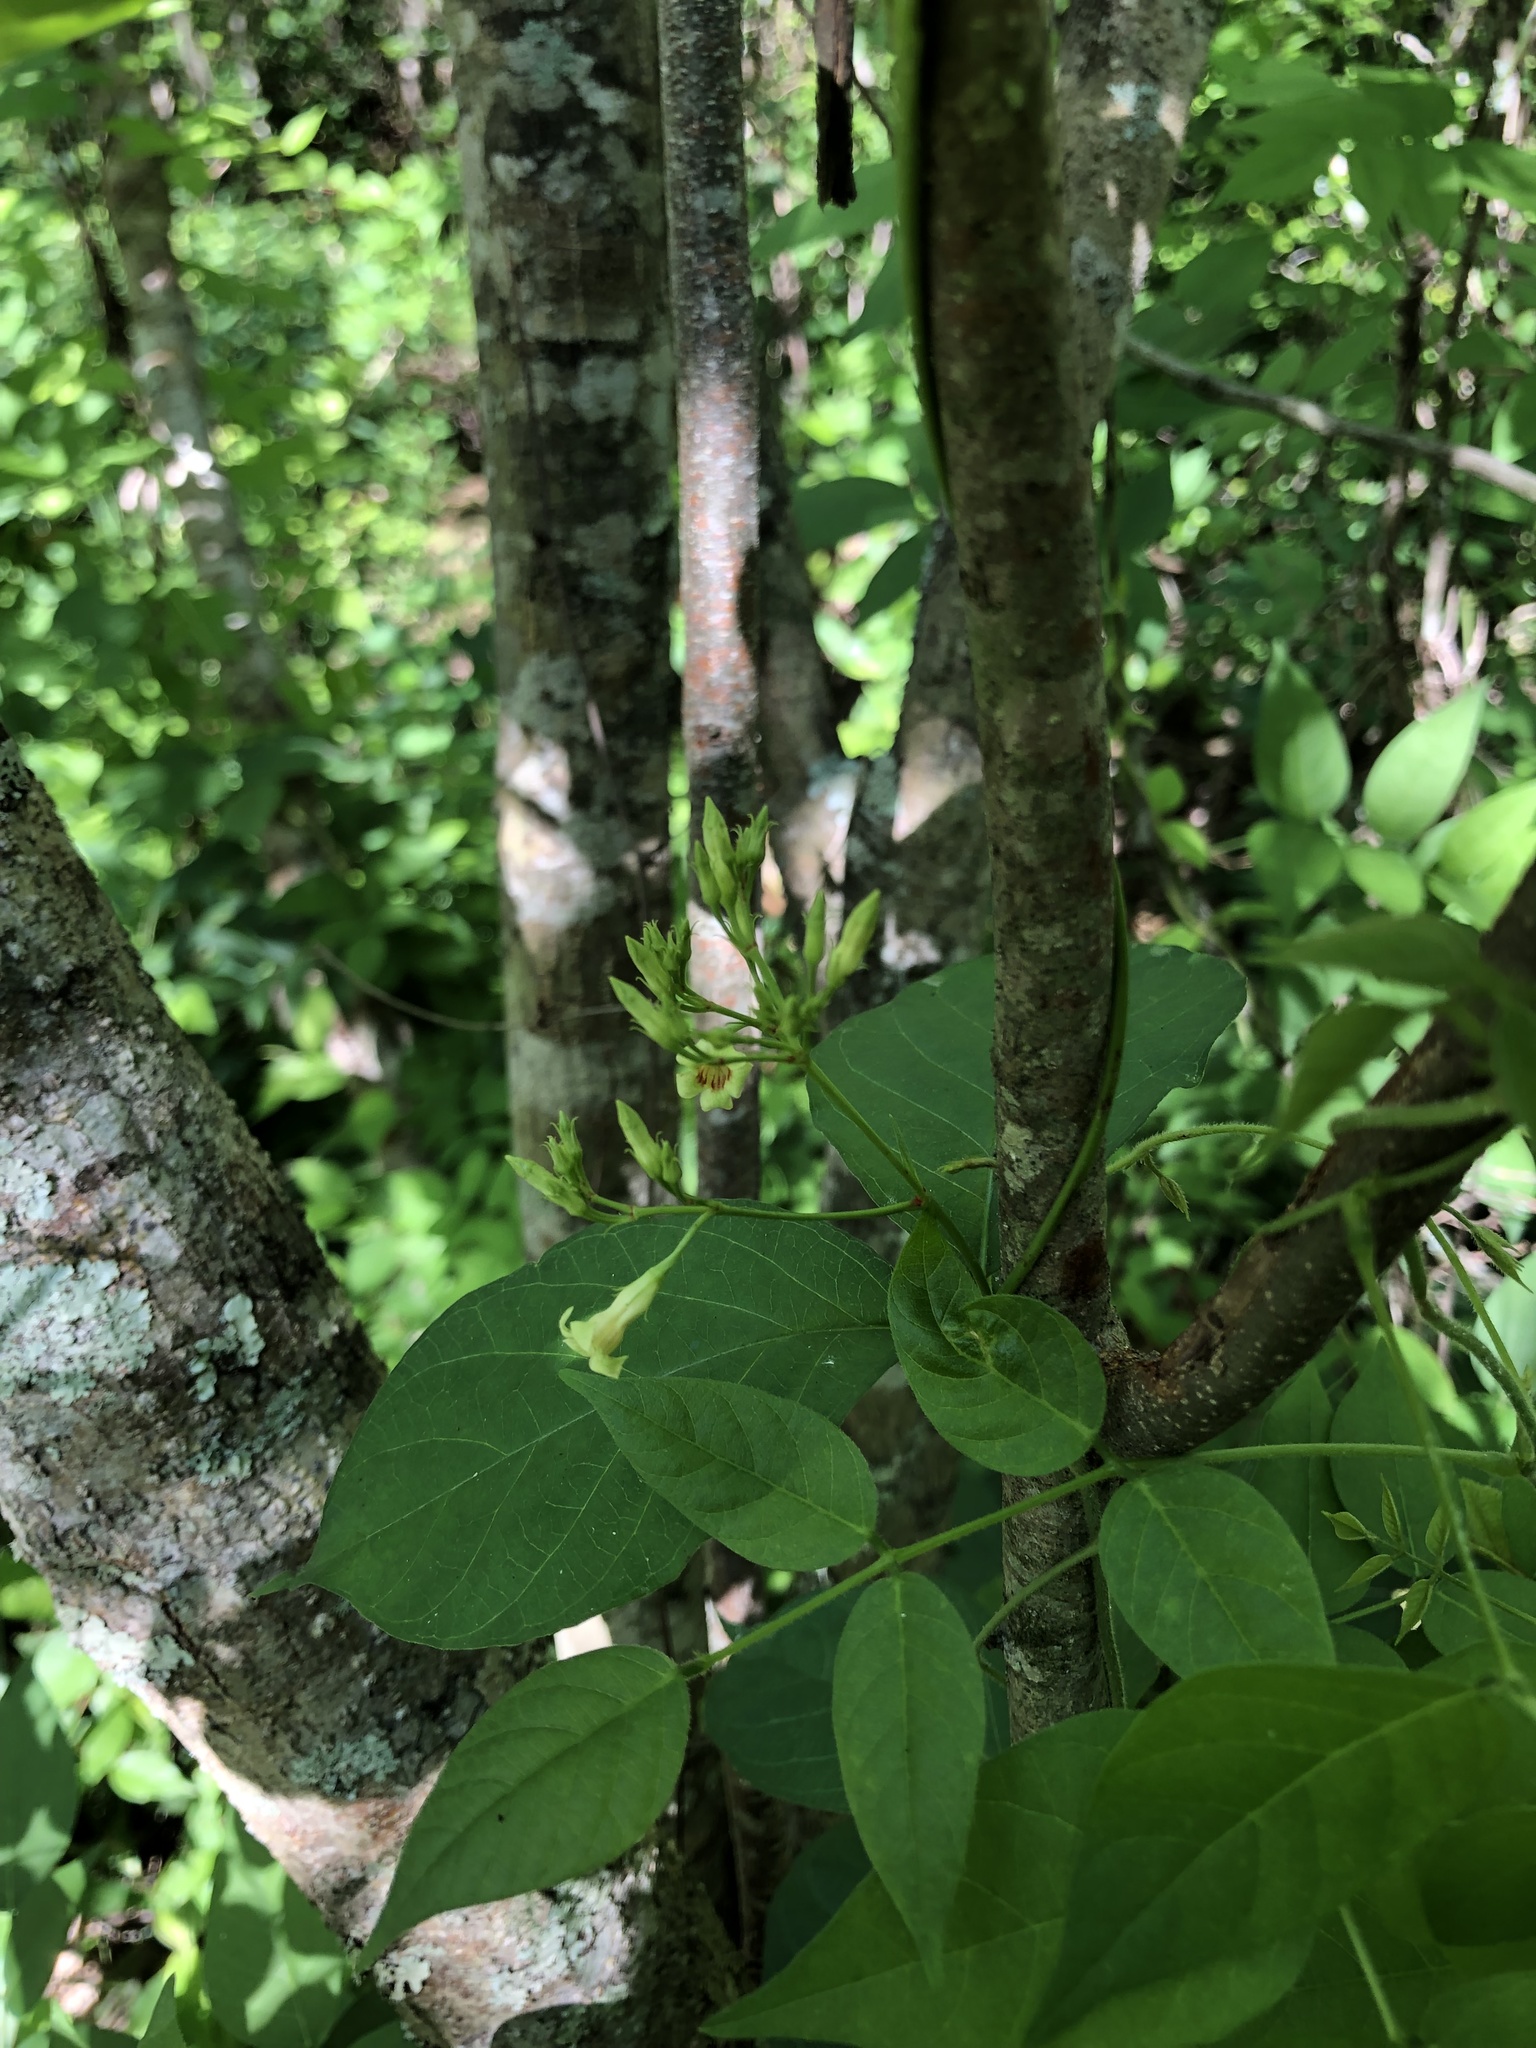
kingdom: Plantae
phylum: Tracheophyta
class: Magnoliopsida
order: Gentianales
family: Apocynaceae
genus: Thyrsanthella
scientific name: Thyrsanthella difformis
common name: Climbing dogbane
